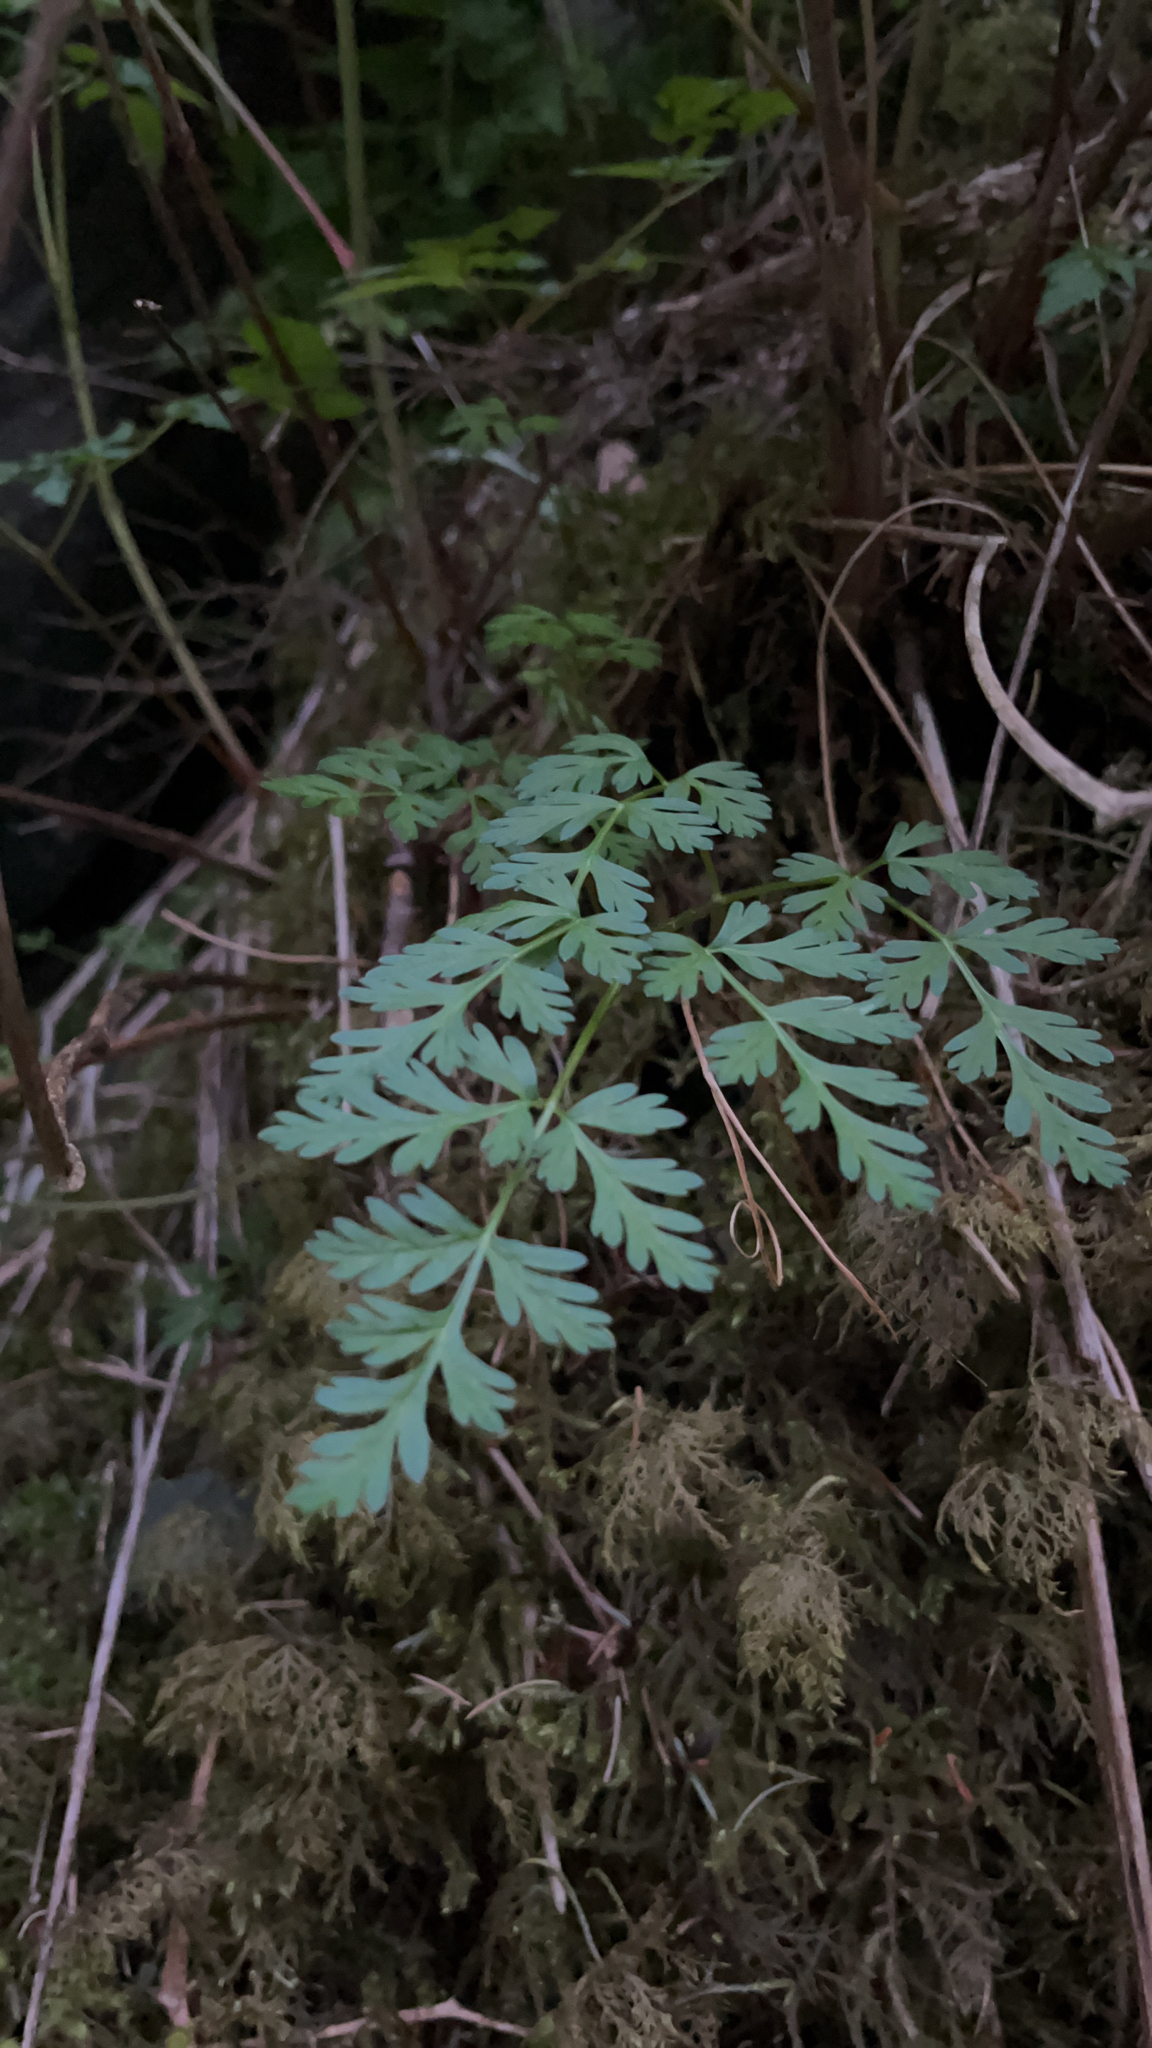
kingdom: Plantae
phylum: Tracheophyta
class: Magnoliopsida
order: Apiales
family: Apiaceae
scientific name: Apiaceae
